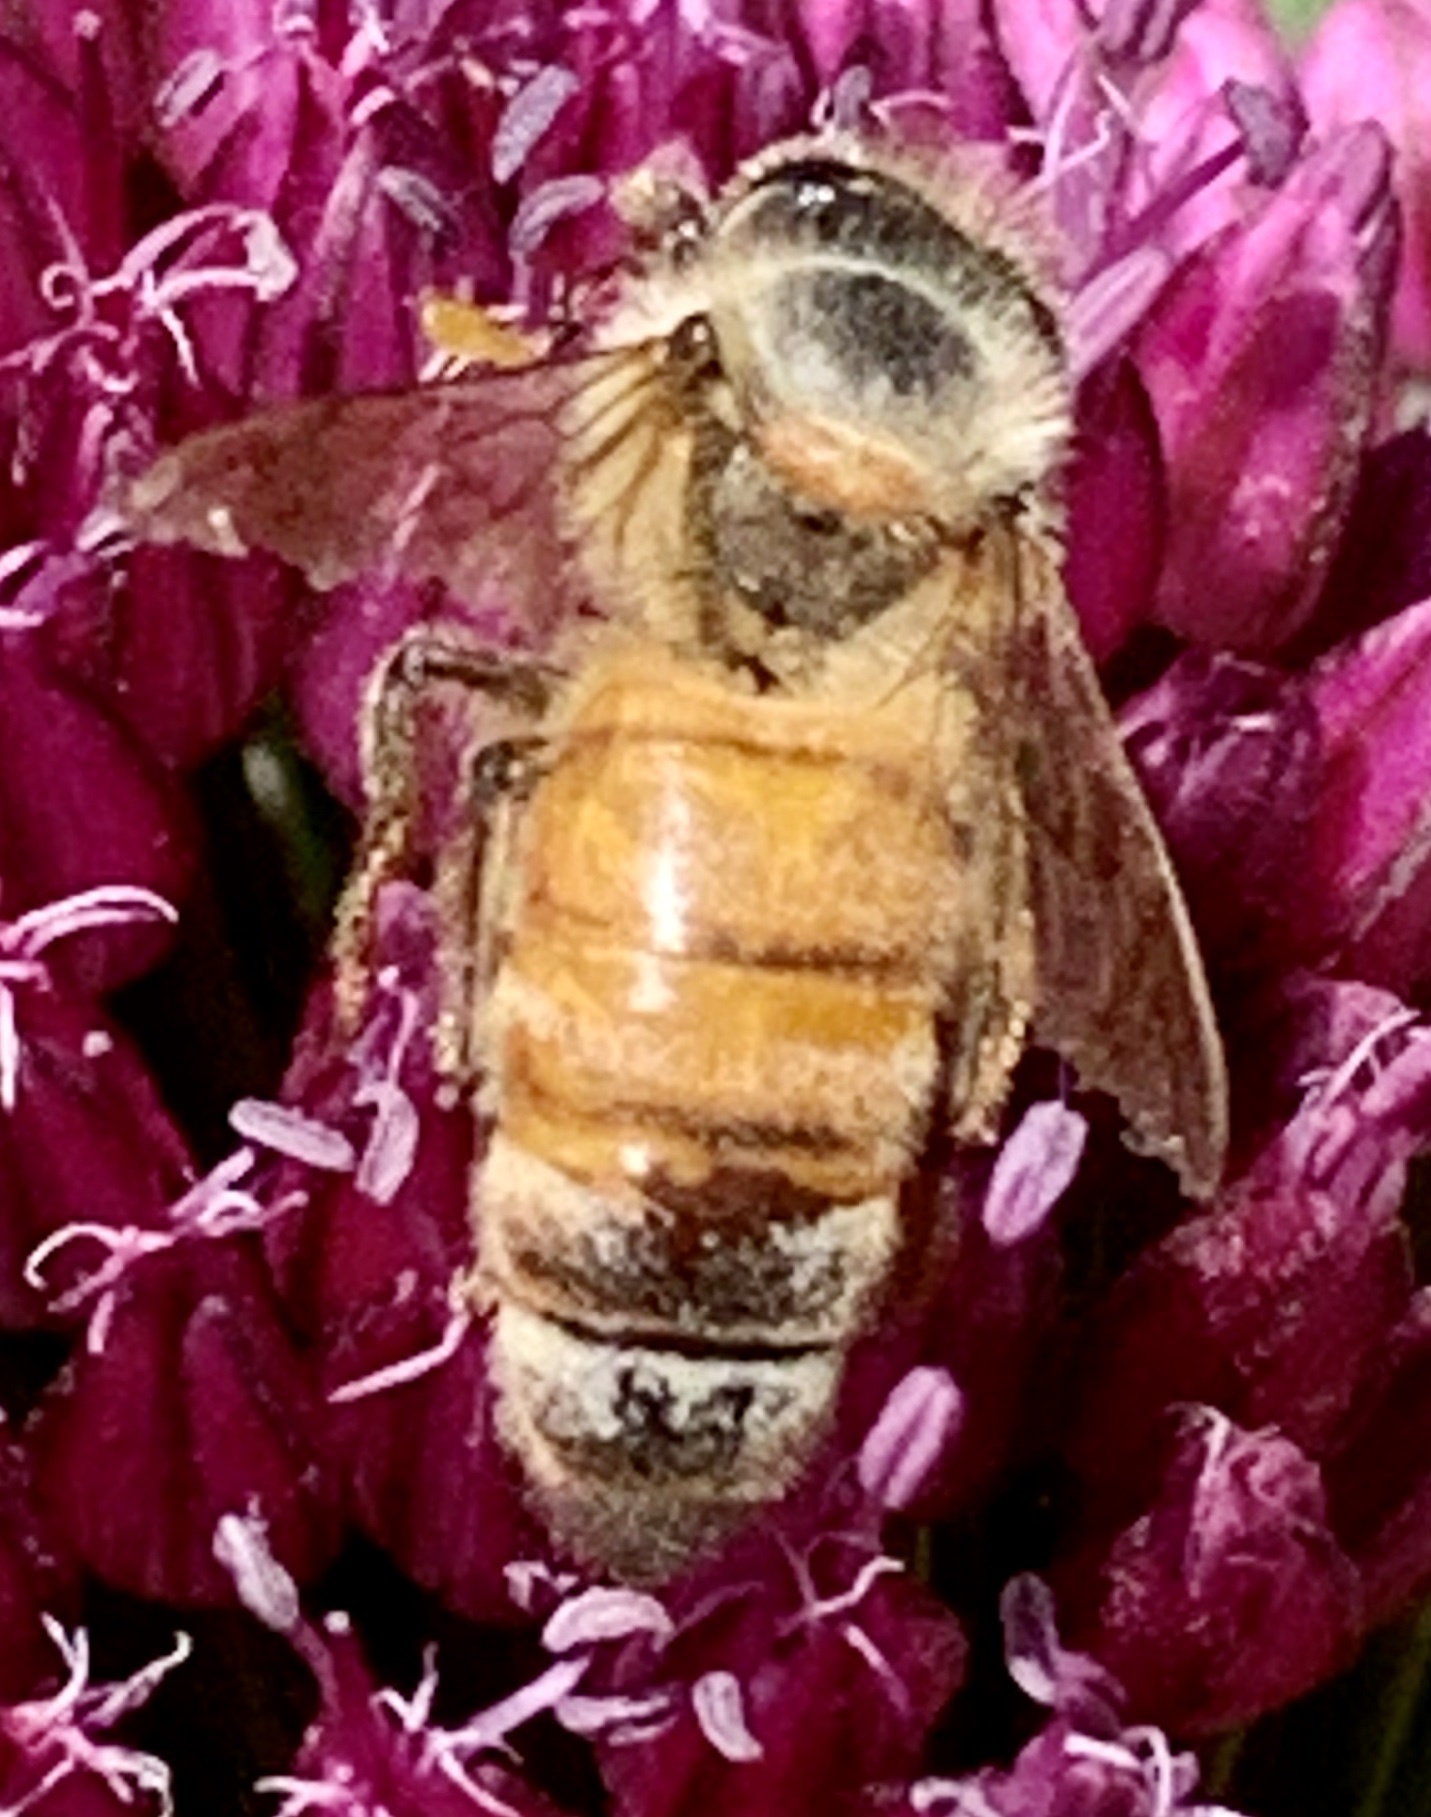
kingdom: Animalia
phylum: Arthropoda
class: Insecta
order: Hymenoptera
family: Apidae
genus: Apis
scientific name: Apis mellifera
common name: Honey bee
